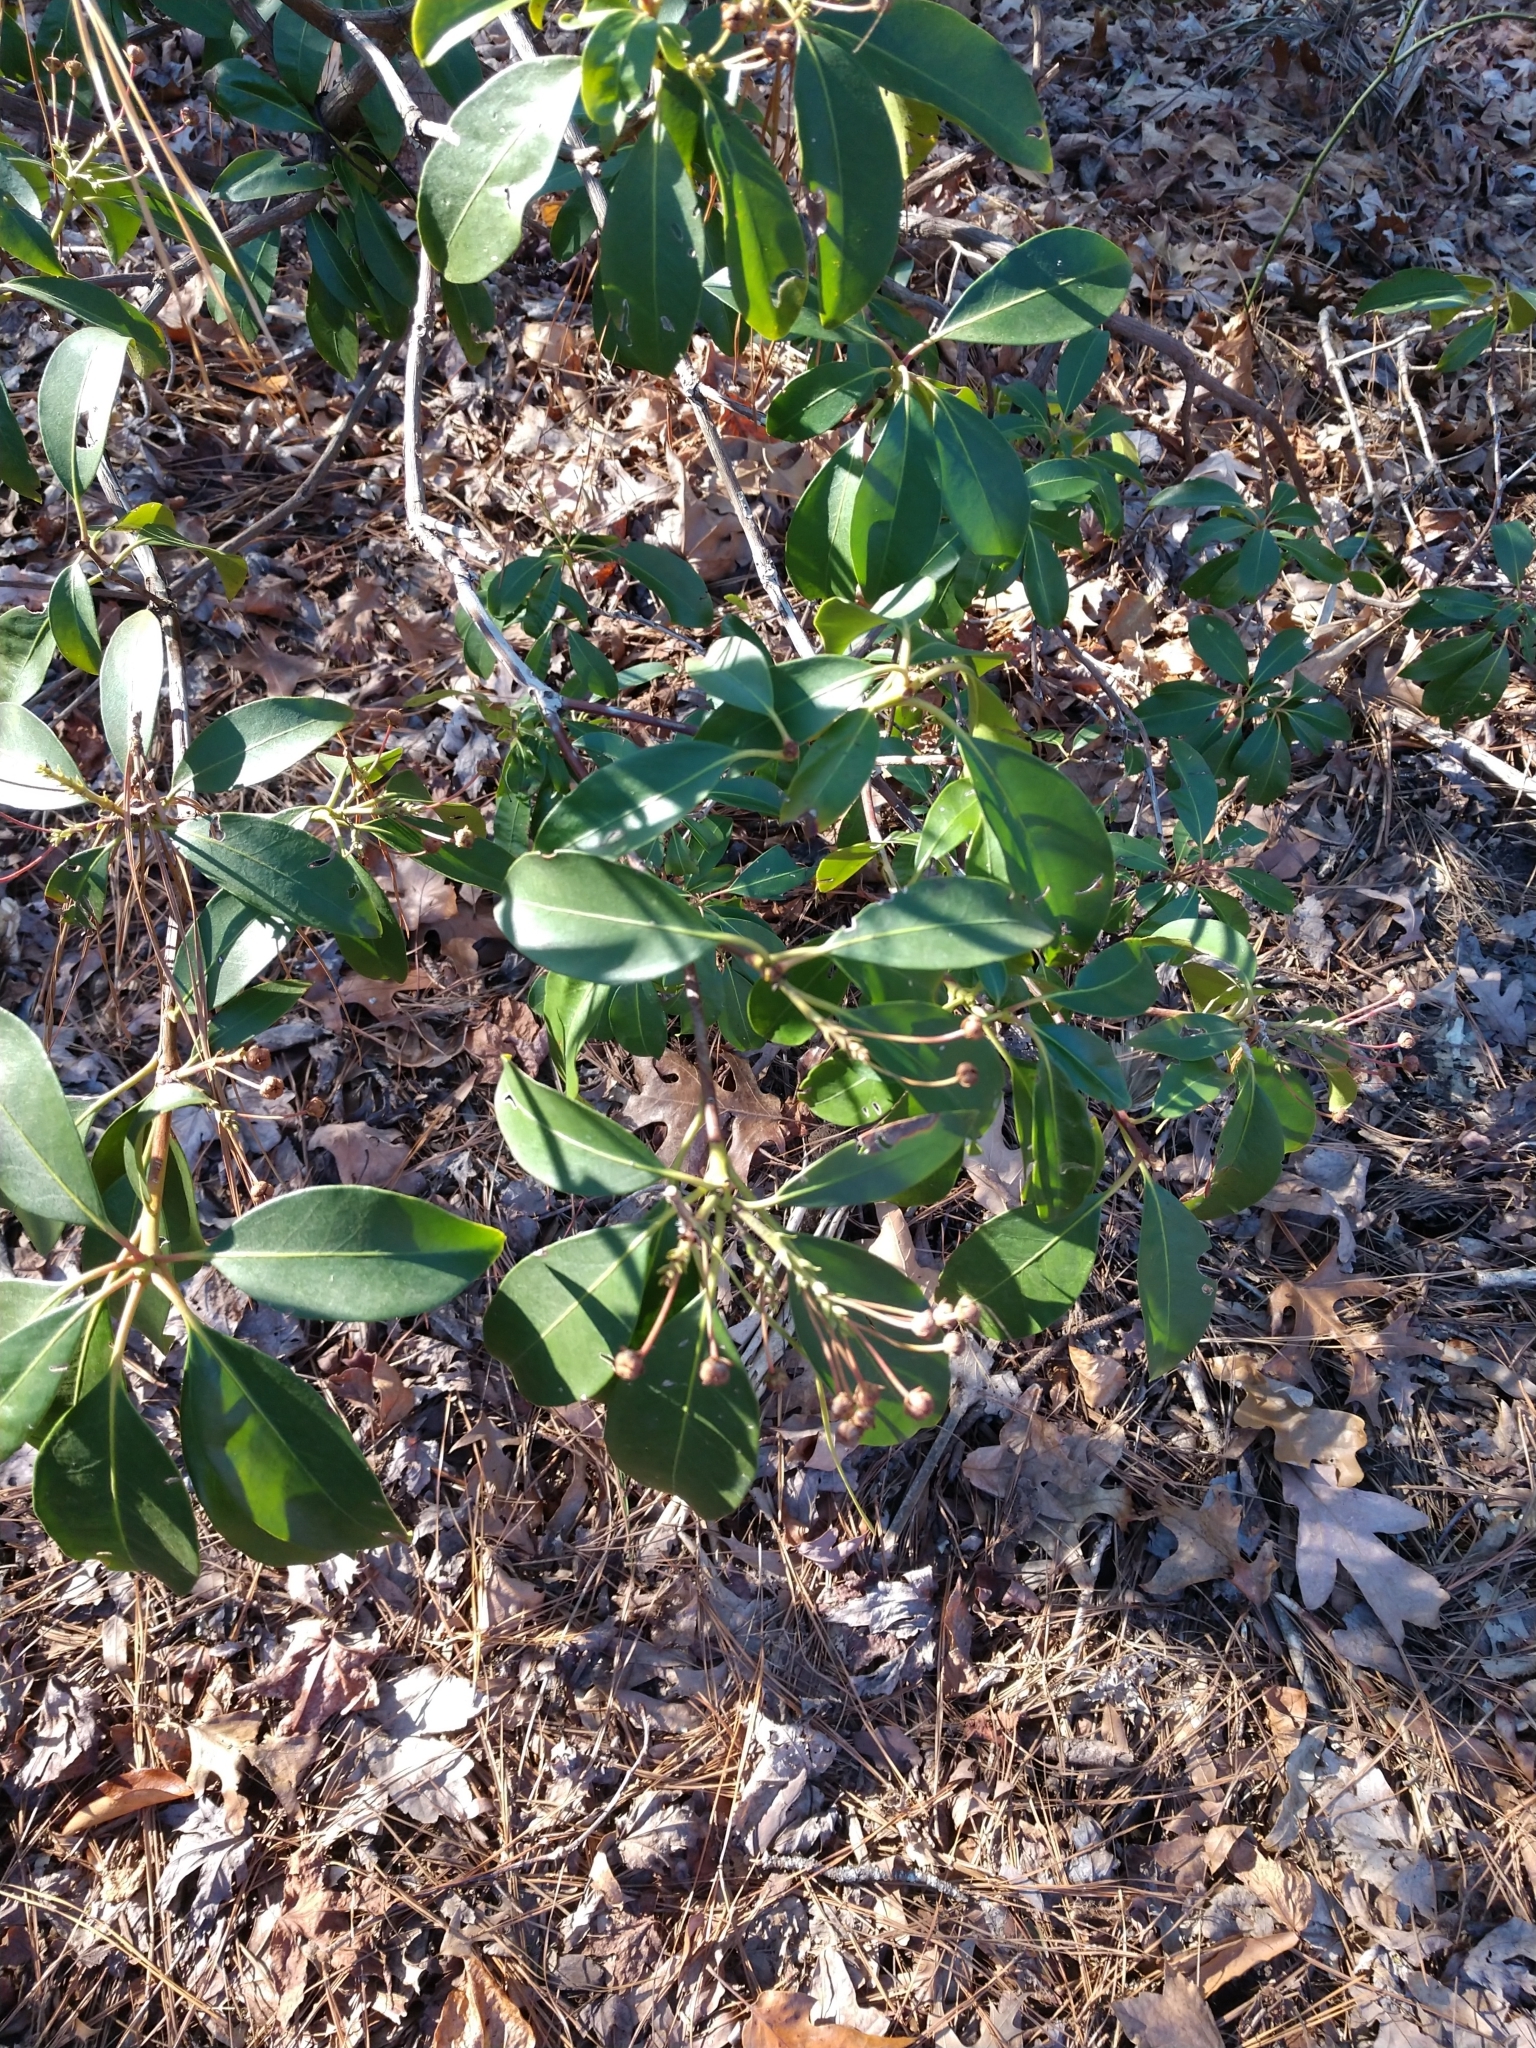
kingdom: Plantae
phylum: Tracheophyta
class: Magnoliopsida
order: Ericales
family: Ericaceae
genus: Kalmia
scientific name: Kalmia latifolia
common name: Mountain-laurel
